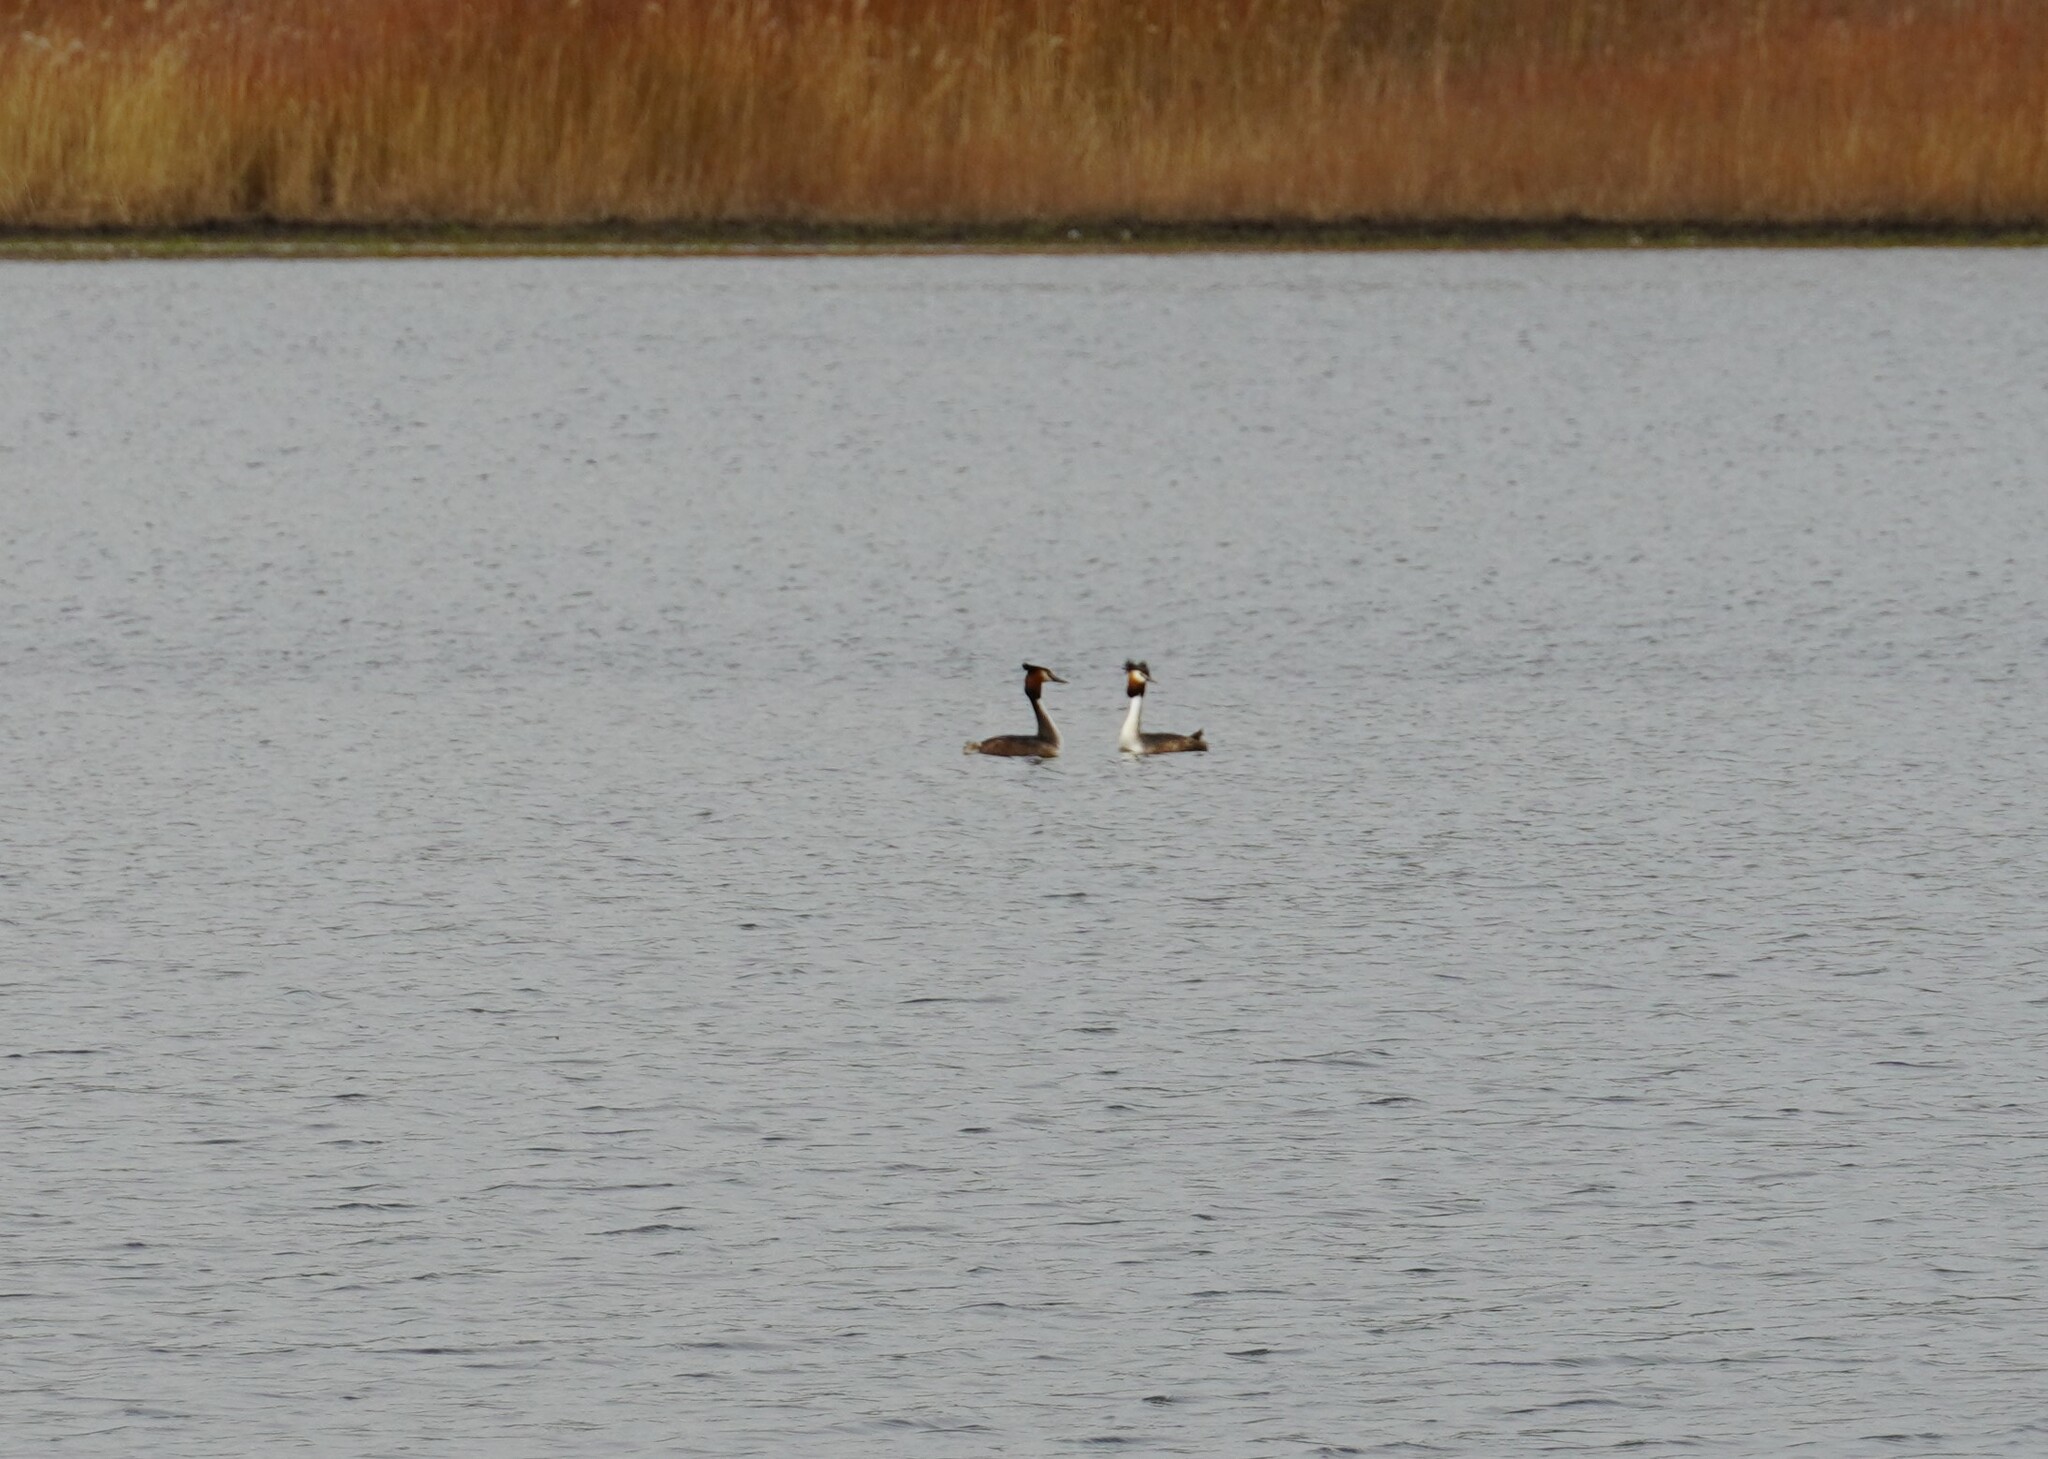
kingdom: Animalia
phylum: Chordata
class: Aves
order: Podicipediformes
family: Podicipedidae
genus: Podiceps
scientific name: Podiceps cristatus
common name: Great crested grebe
